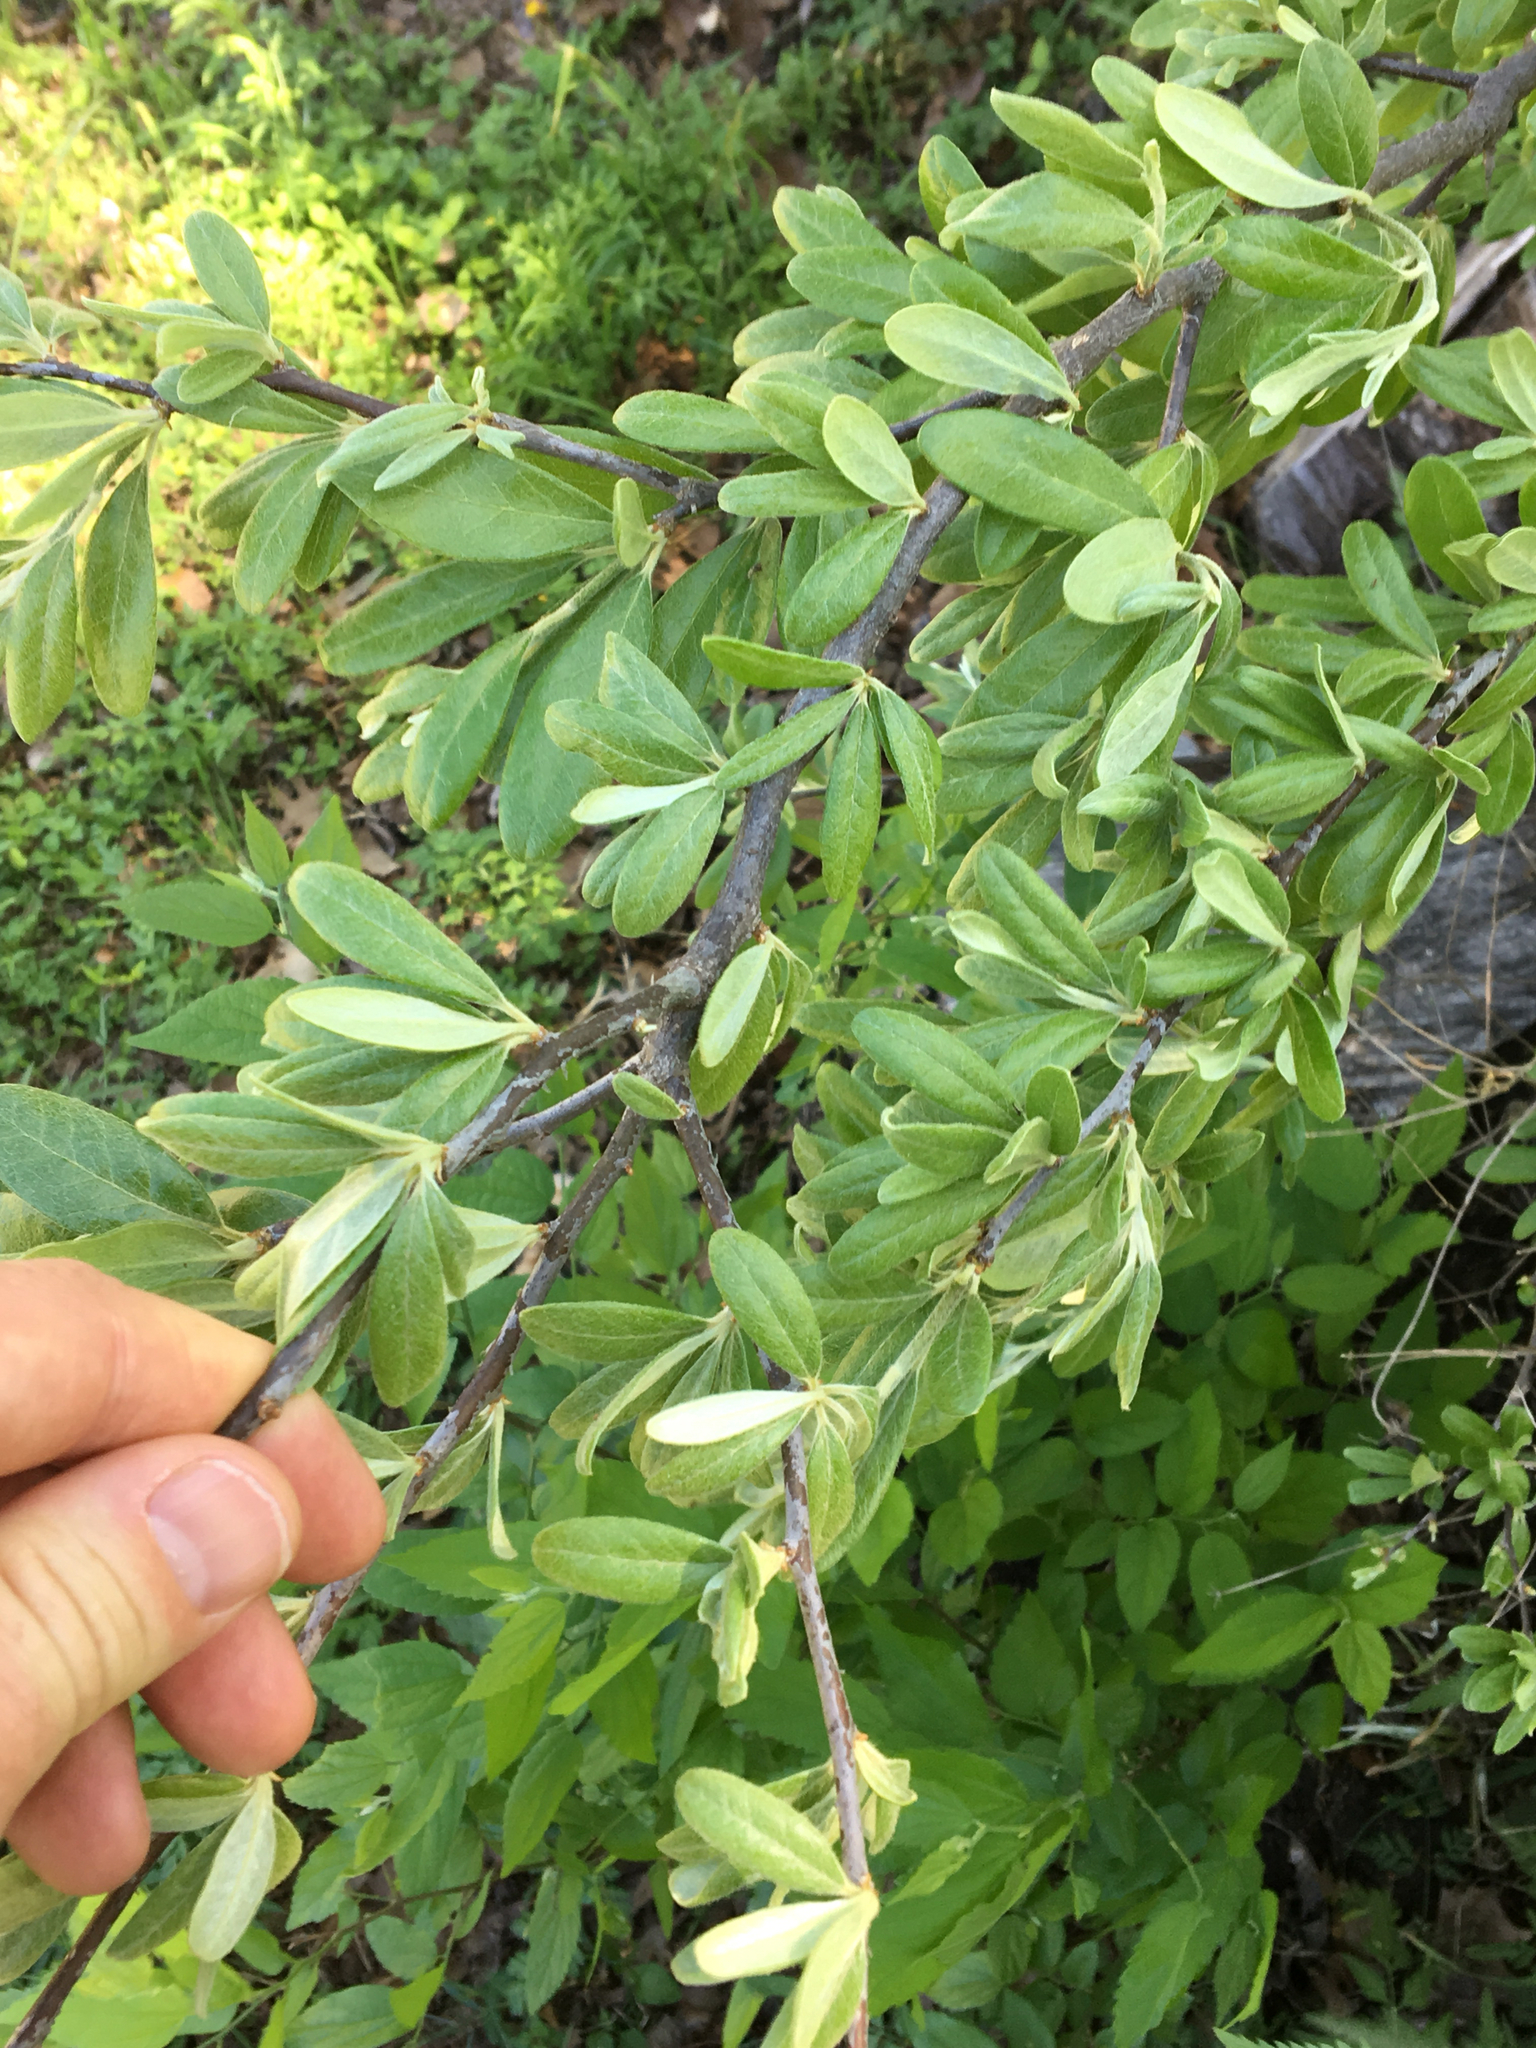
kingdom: Plantae
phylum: Tracheophyta
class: Magnoliopsida
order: Ericales
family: Sapotaceae
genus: Sideroxylon
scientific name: Sideroxylon lanuginosum
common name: Chittamwood
